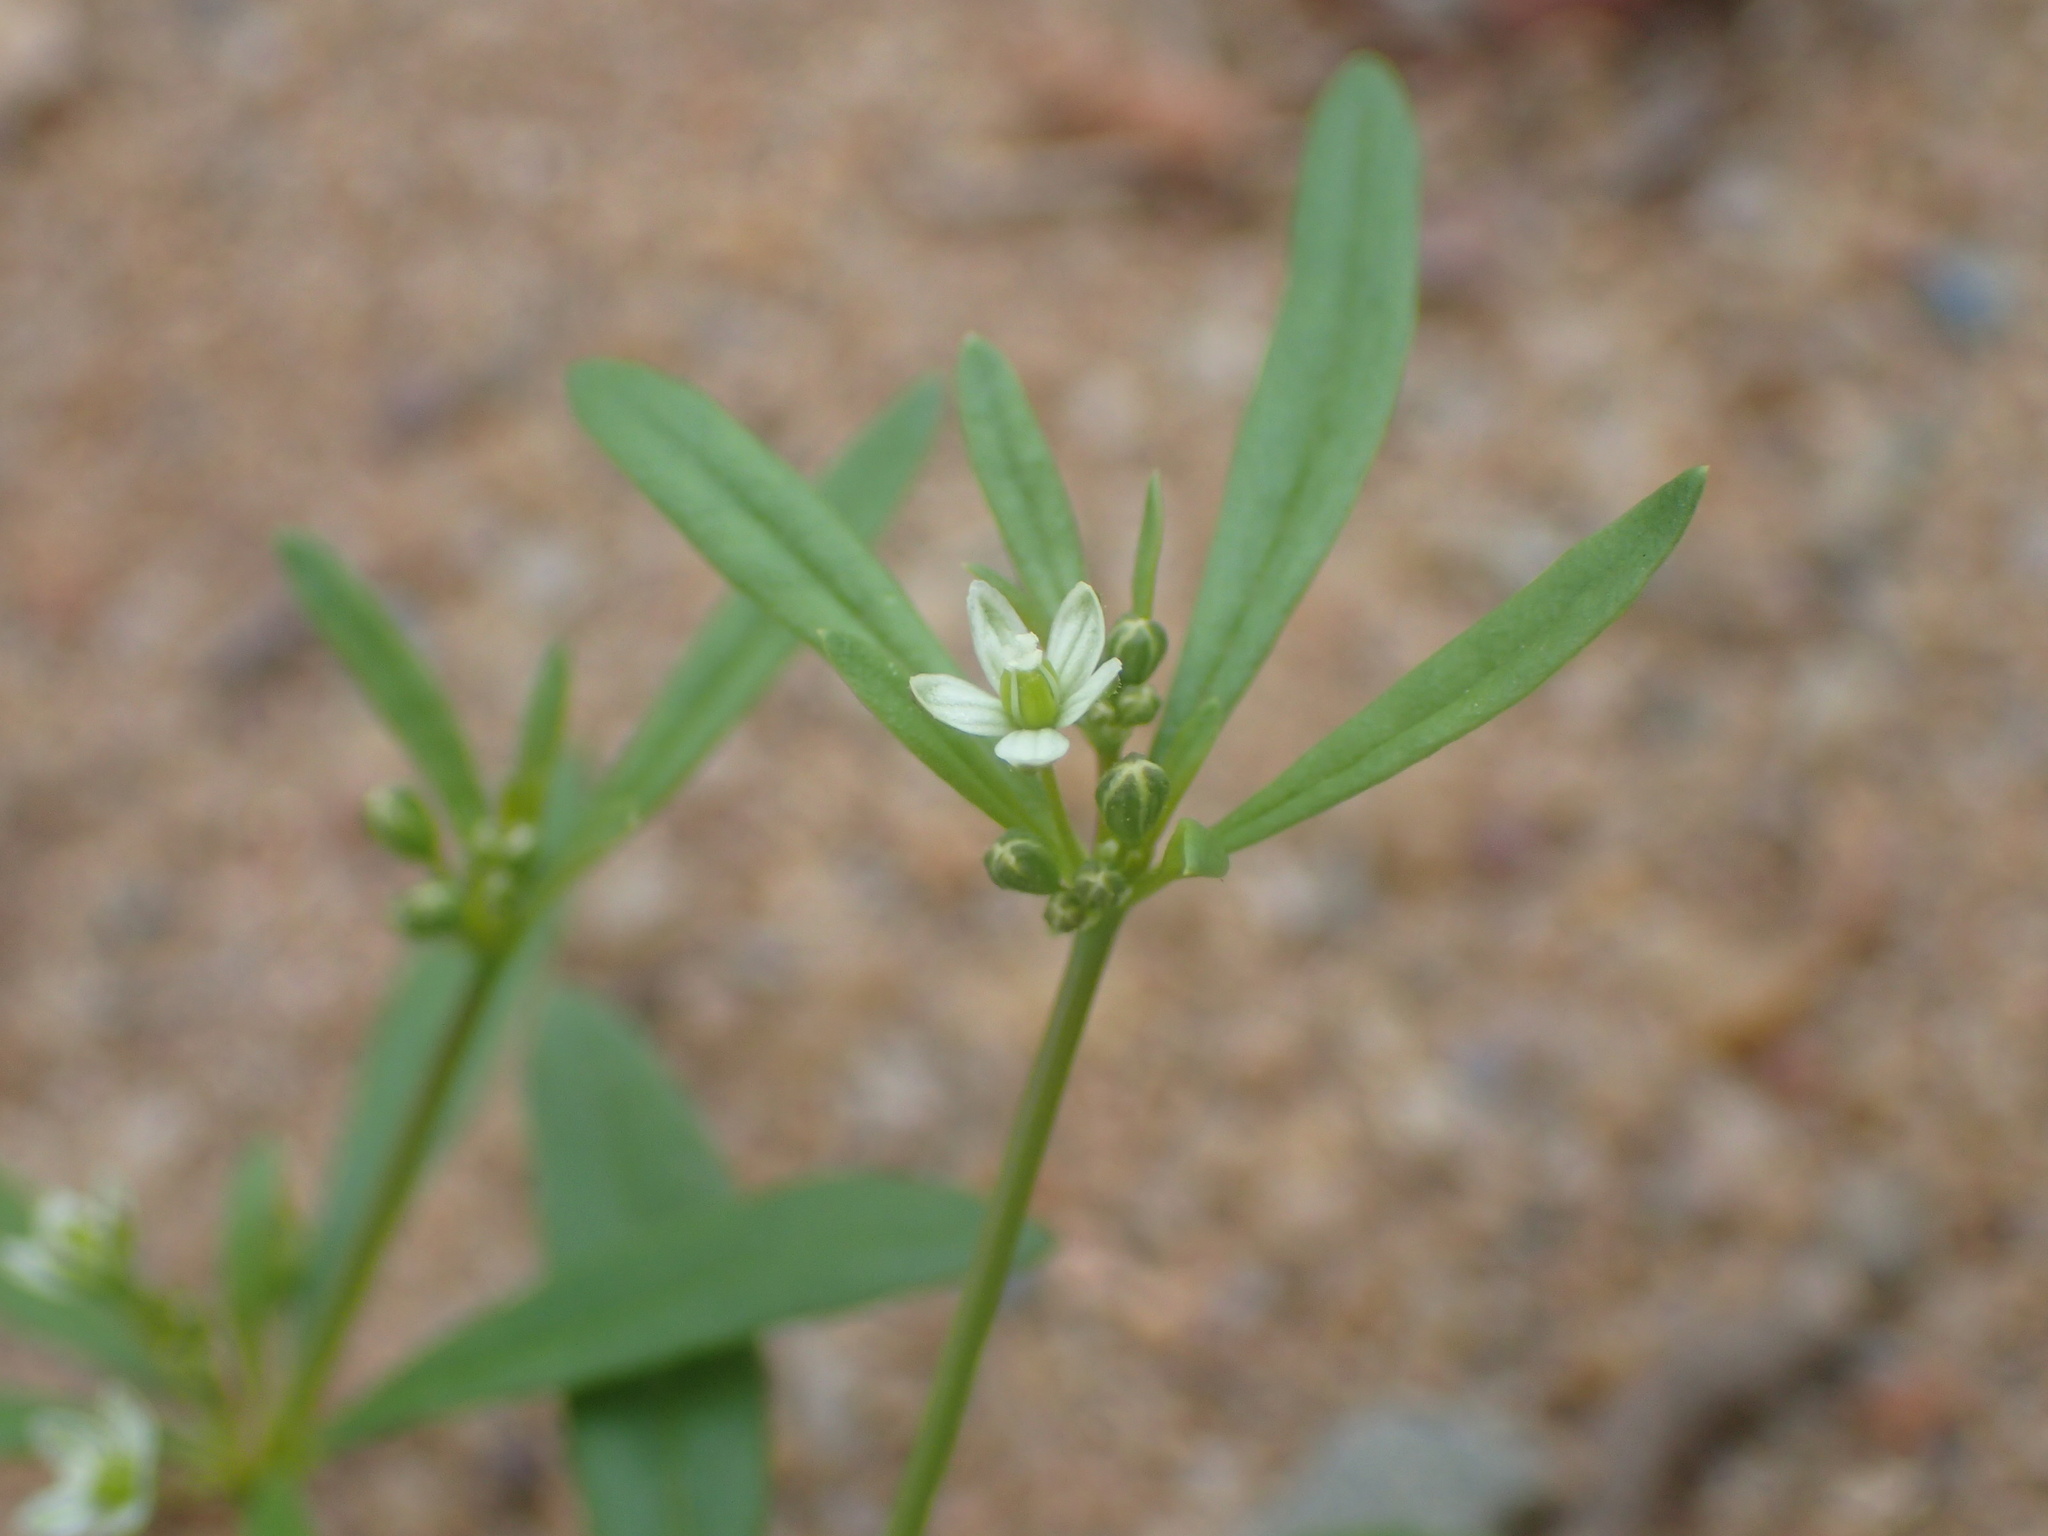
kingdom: Plantae
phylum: Tracheophyta
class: Magnoliopsida
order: Caryophyllales
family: Molluginaceae
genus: Mollugo
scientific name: Mollugo verticillata
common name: Green carpetweed
